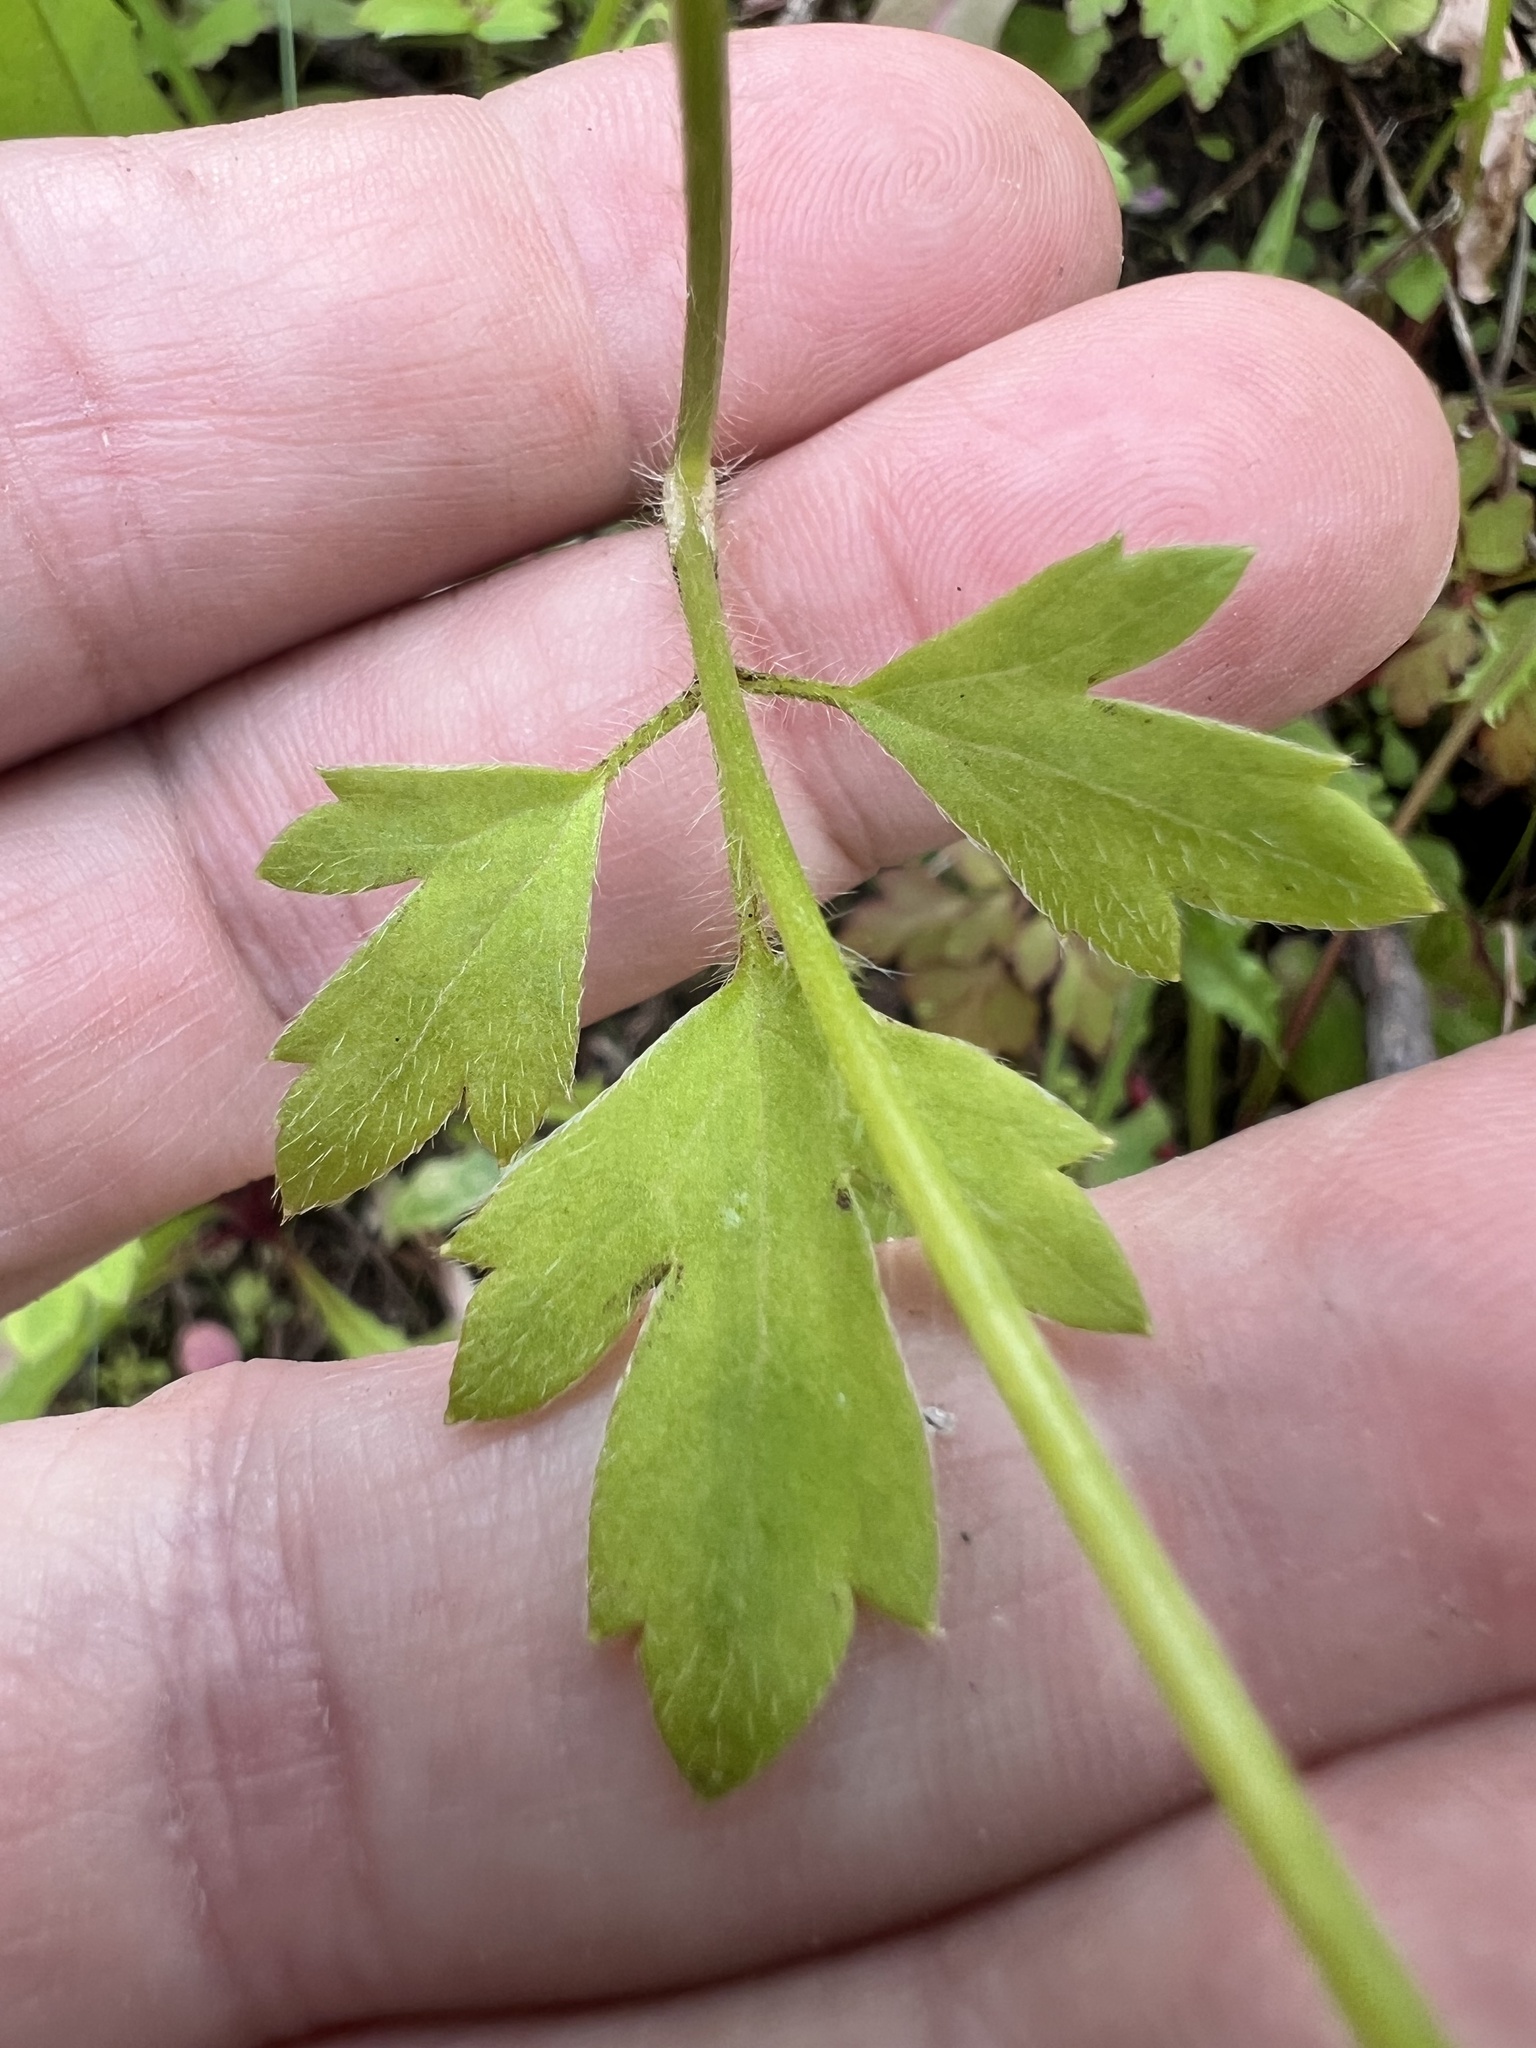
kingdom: Plantae
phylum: Tracheophyta
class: Magnoliopsida
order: Ranunculales
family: Ranunculaceae
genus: Ranunculus
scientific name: Ranunculus reflexus
